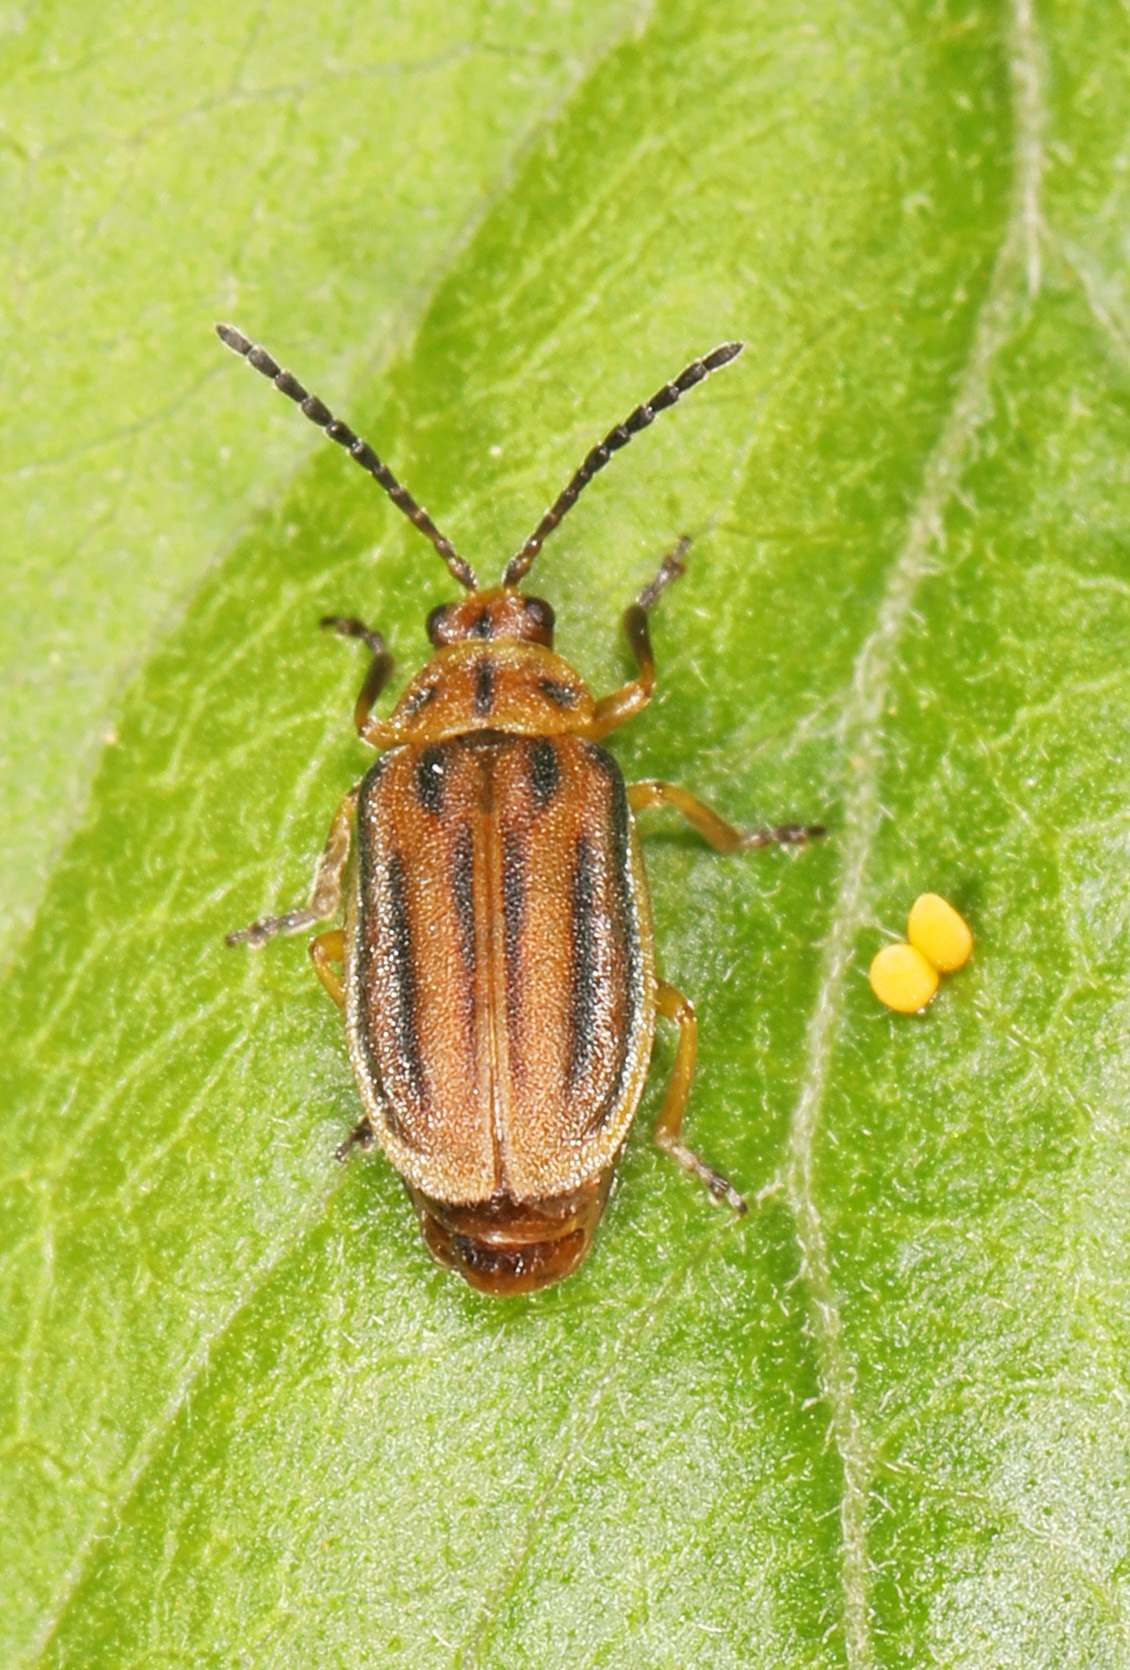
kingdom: Animalia
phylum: Arthropoda
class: Insecta
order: Coleoptera
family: Chrysomelidae
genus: Ophraella
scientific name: Ophraella notata
